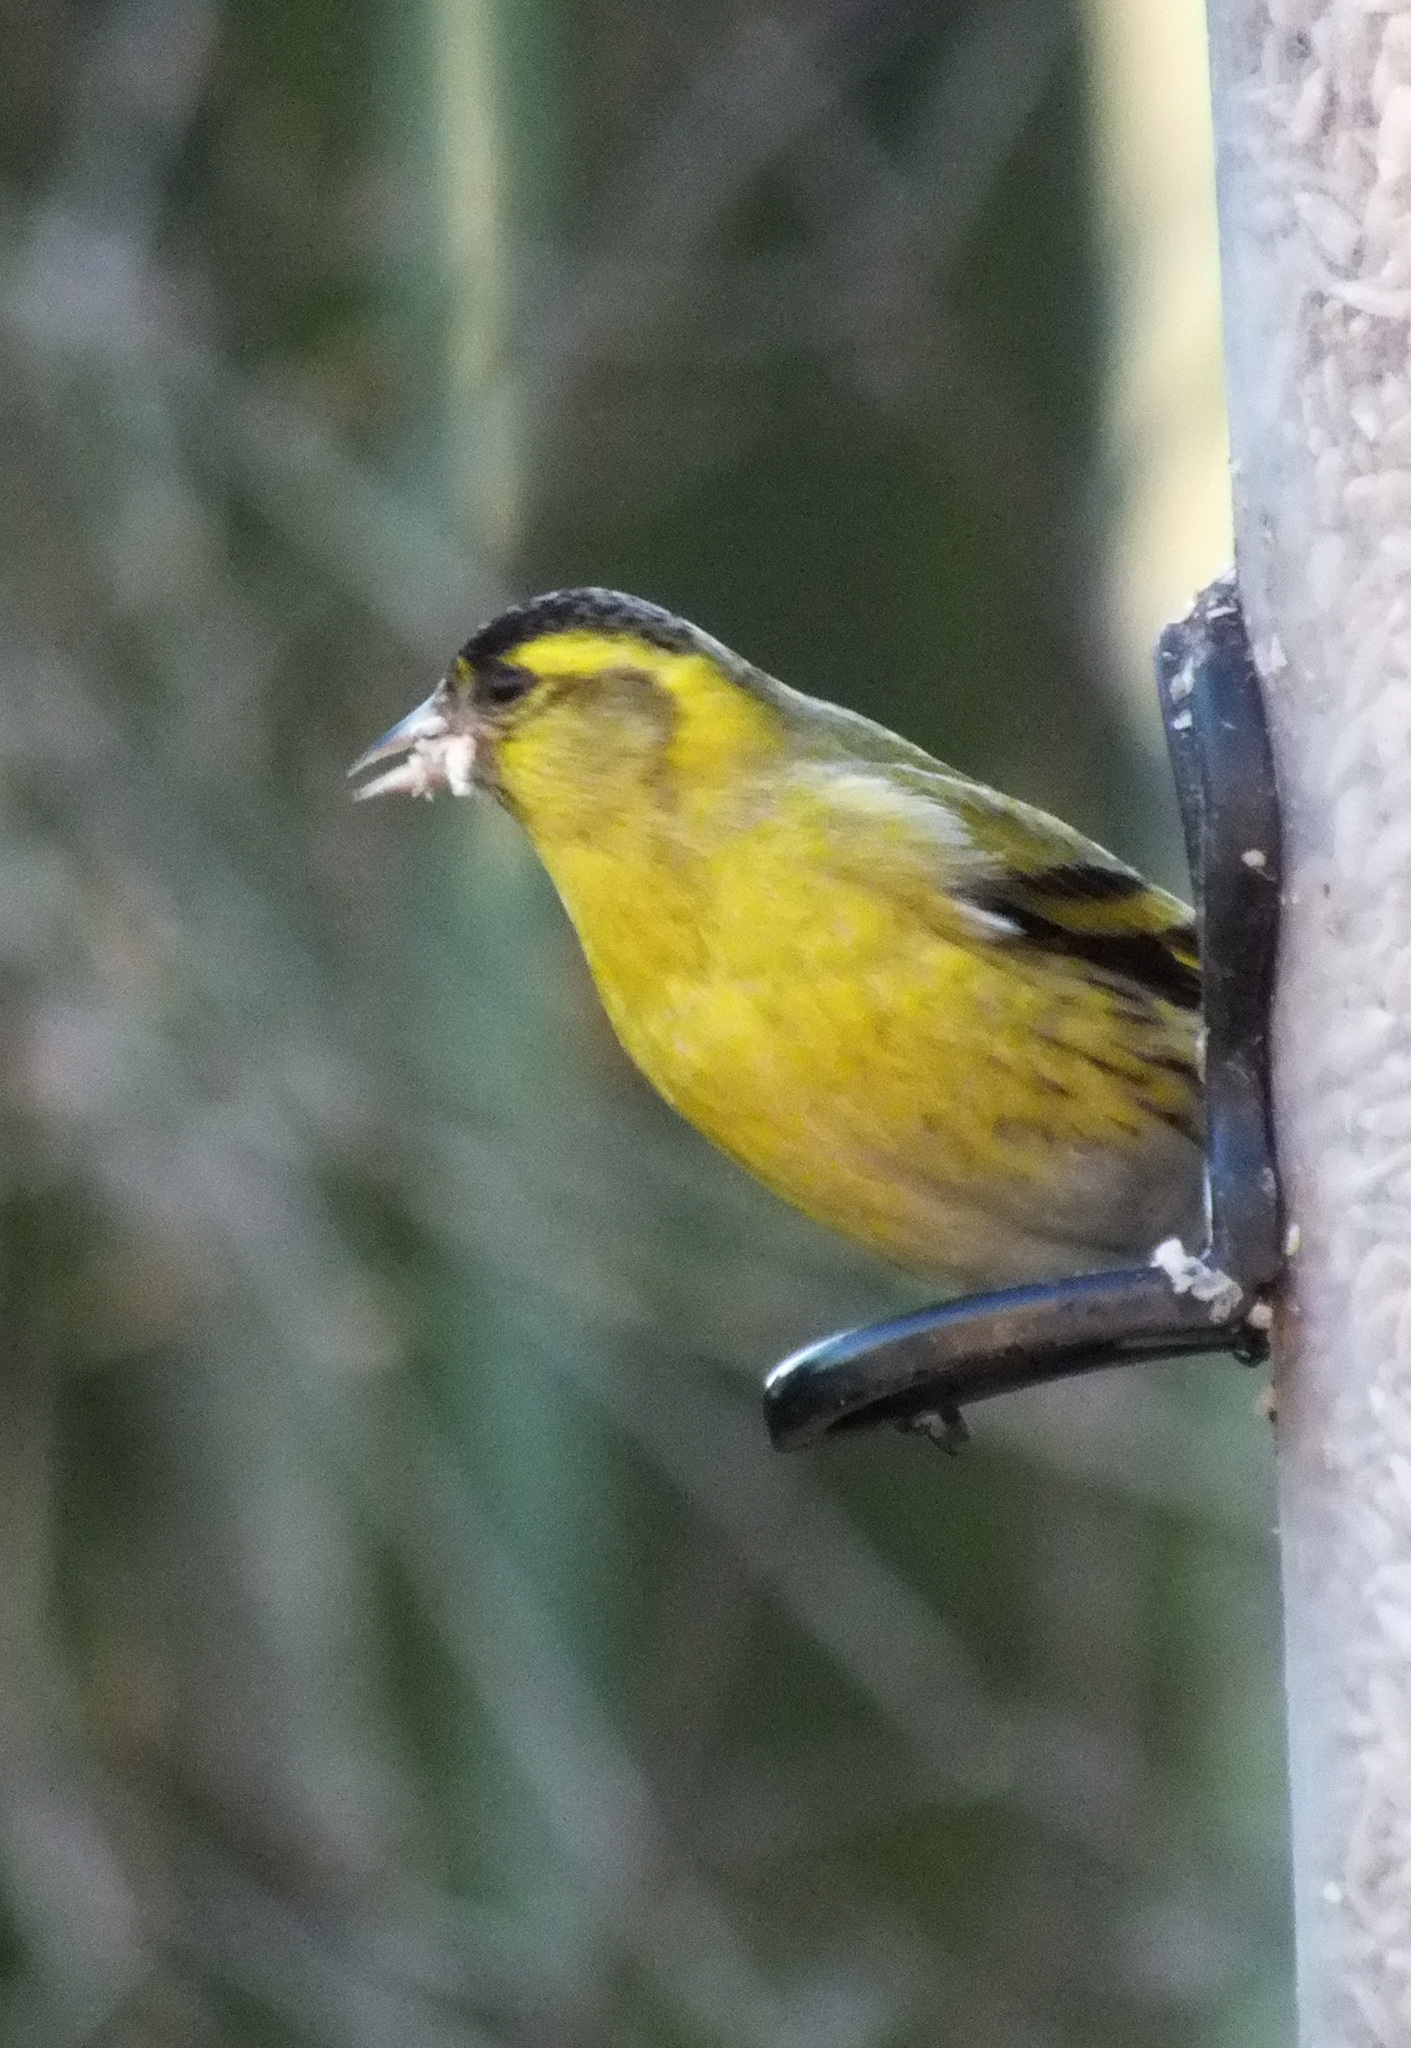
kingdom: Animalia
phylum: Chordata
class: Aves
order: Passeriformes
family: Fringillidae
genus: Spinus
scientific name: Spinus spinus
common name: Eurasian siskin
